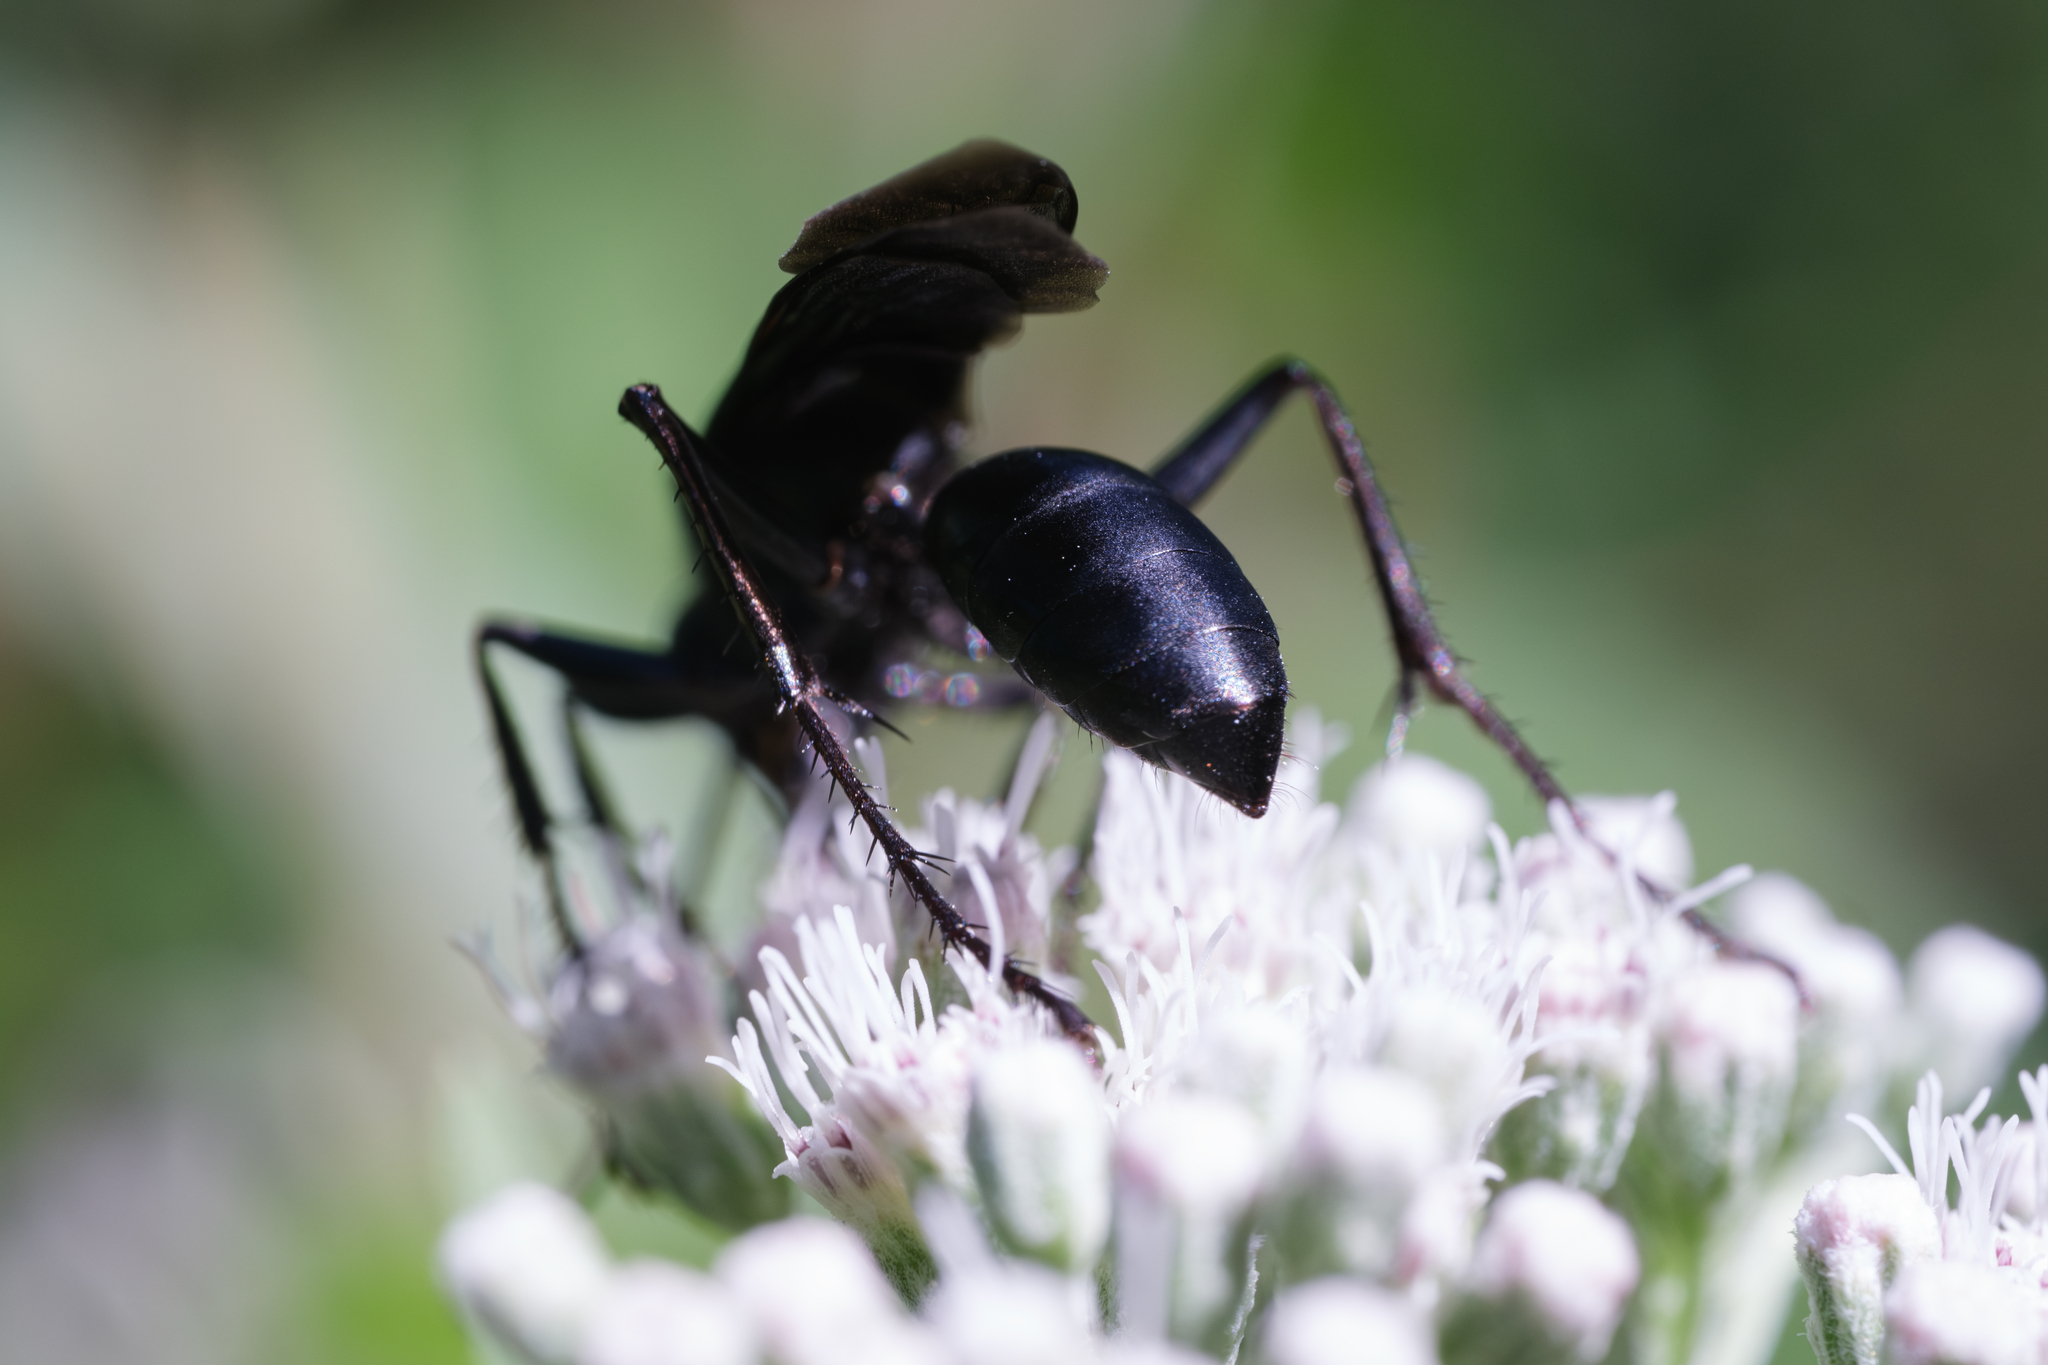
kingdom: Animalia
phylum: Arthropoda
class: Insecta
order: Hymenoptera
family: Sphecidae
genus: Sphex
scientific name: Sphex pensylvanicus
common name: Great black digger wasp
